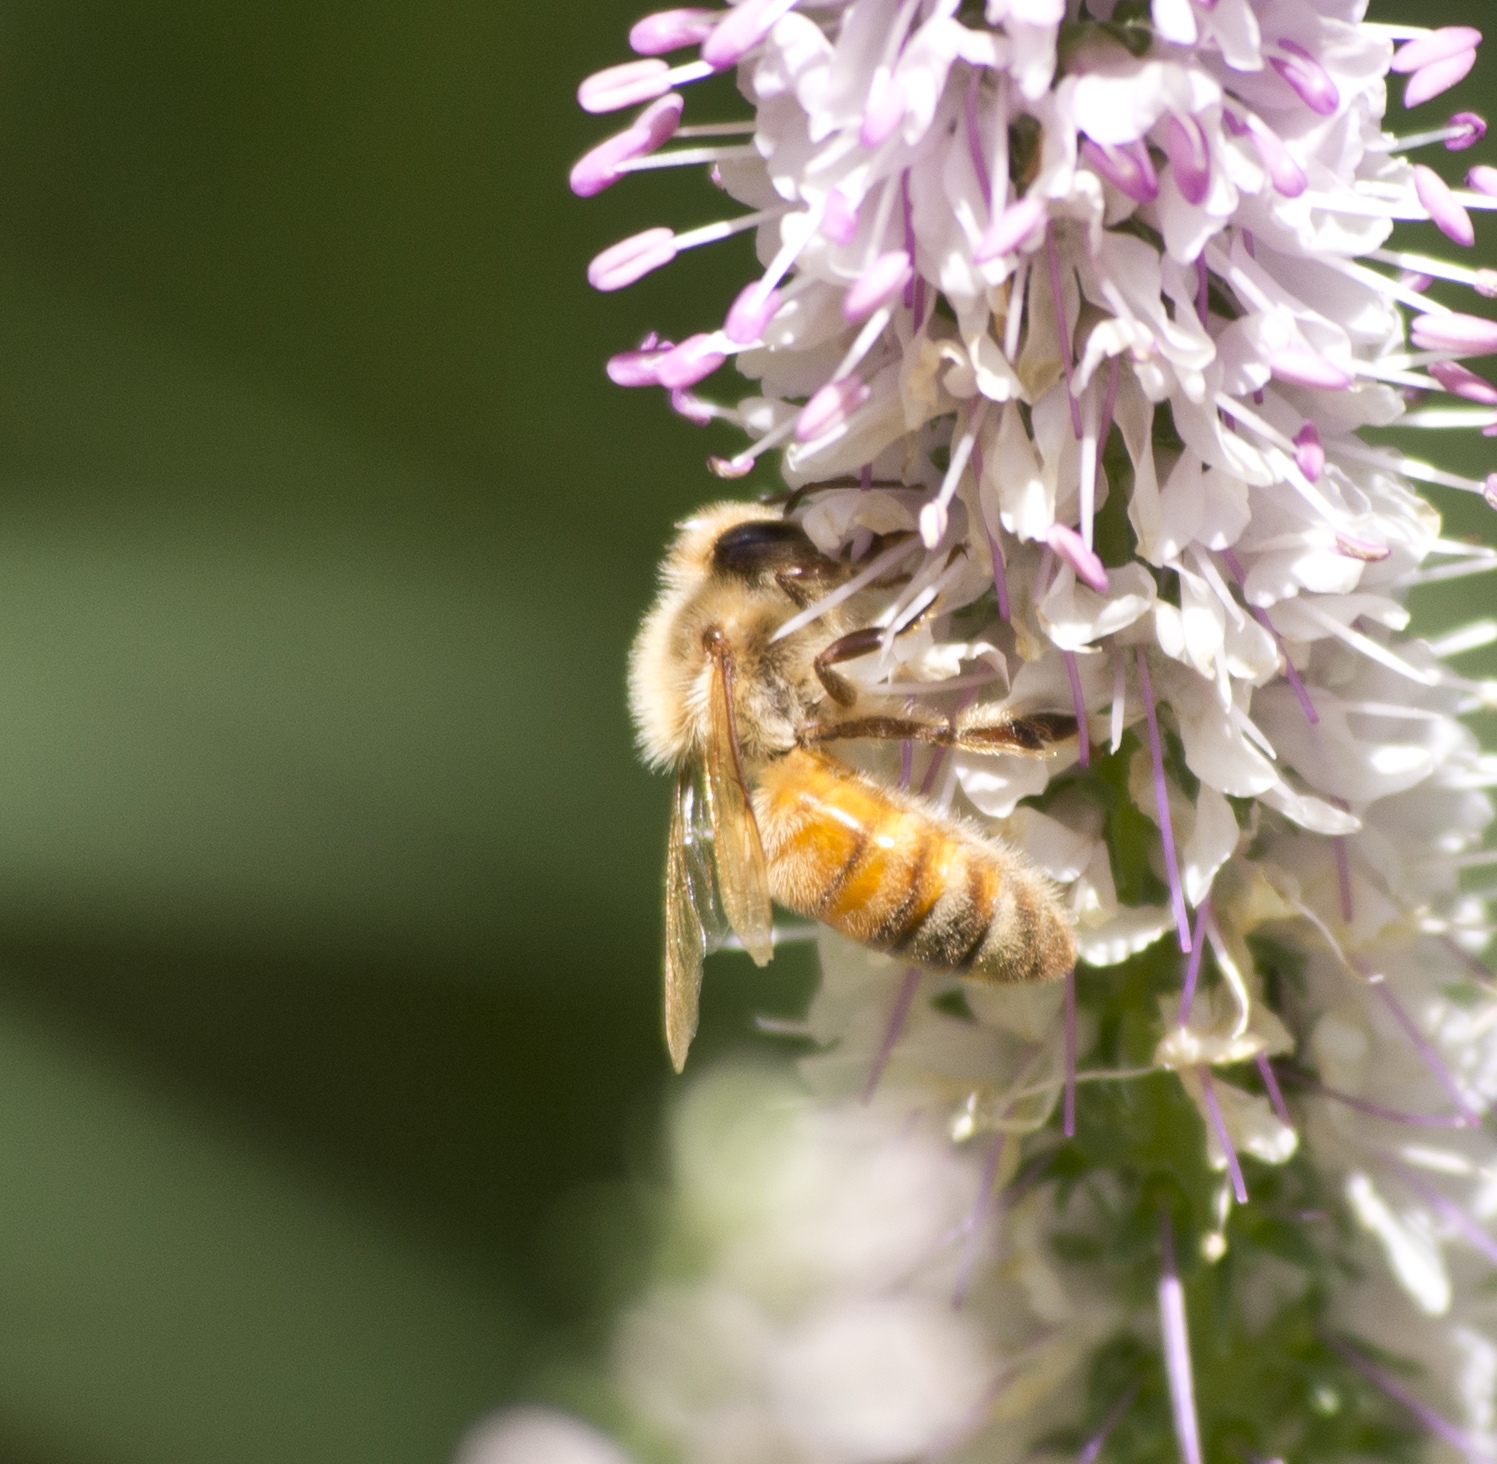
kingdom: Animalia
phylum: Arthropoda
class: Insecta
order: Hymenoptera
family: Apidae
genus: Apis
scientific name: Apis mellifera
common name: Honey bee
